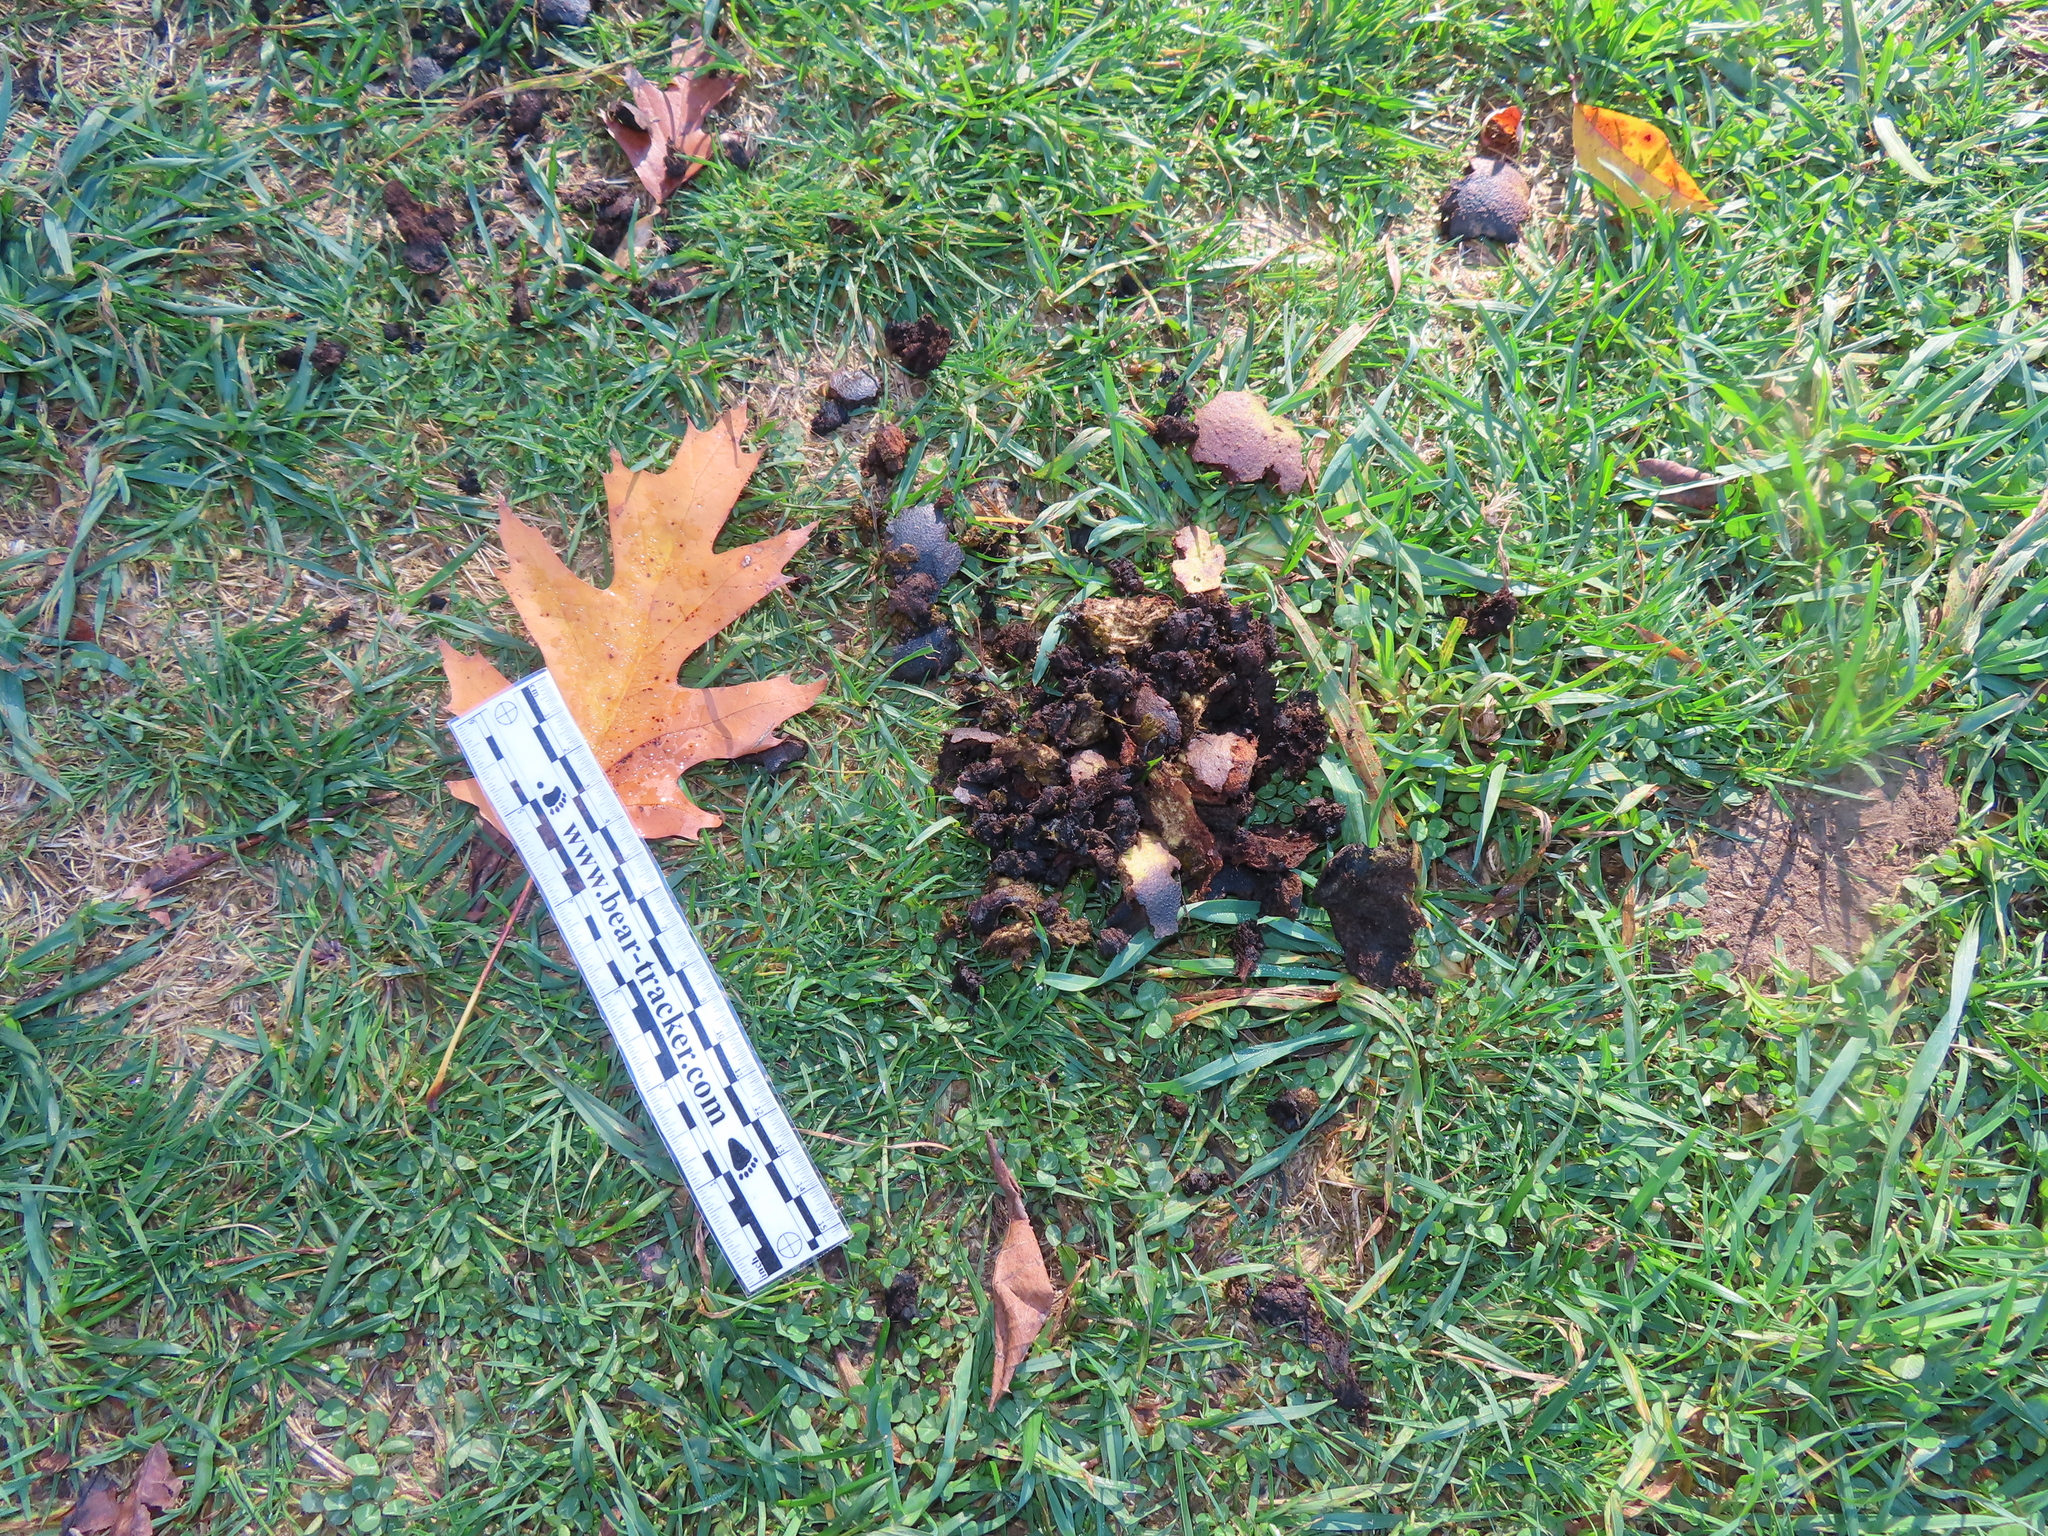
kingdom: Plantae
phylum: Tracheophyta
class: Magnoliopsida
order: Fagales
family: Juglandaceae
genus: Juglans
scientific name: Juglans nigra
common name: Black walnut
